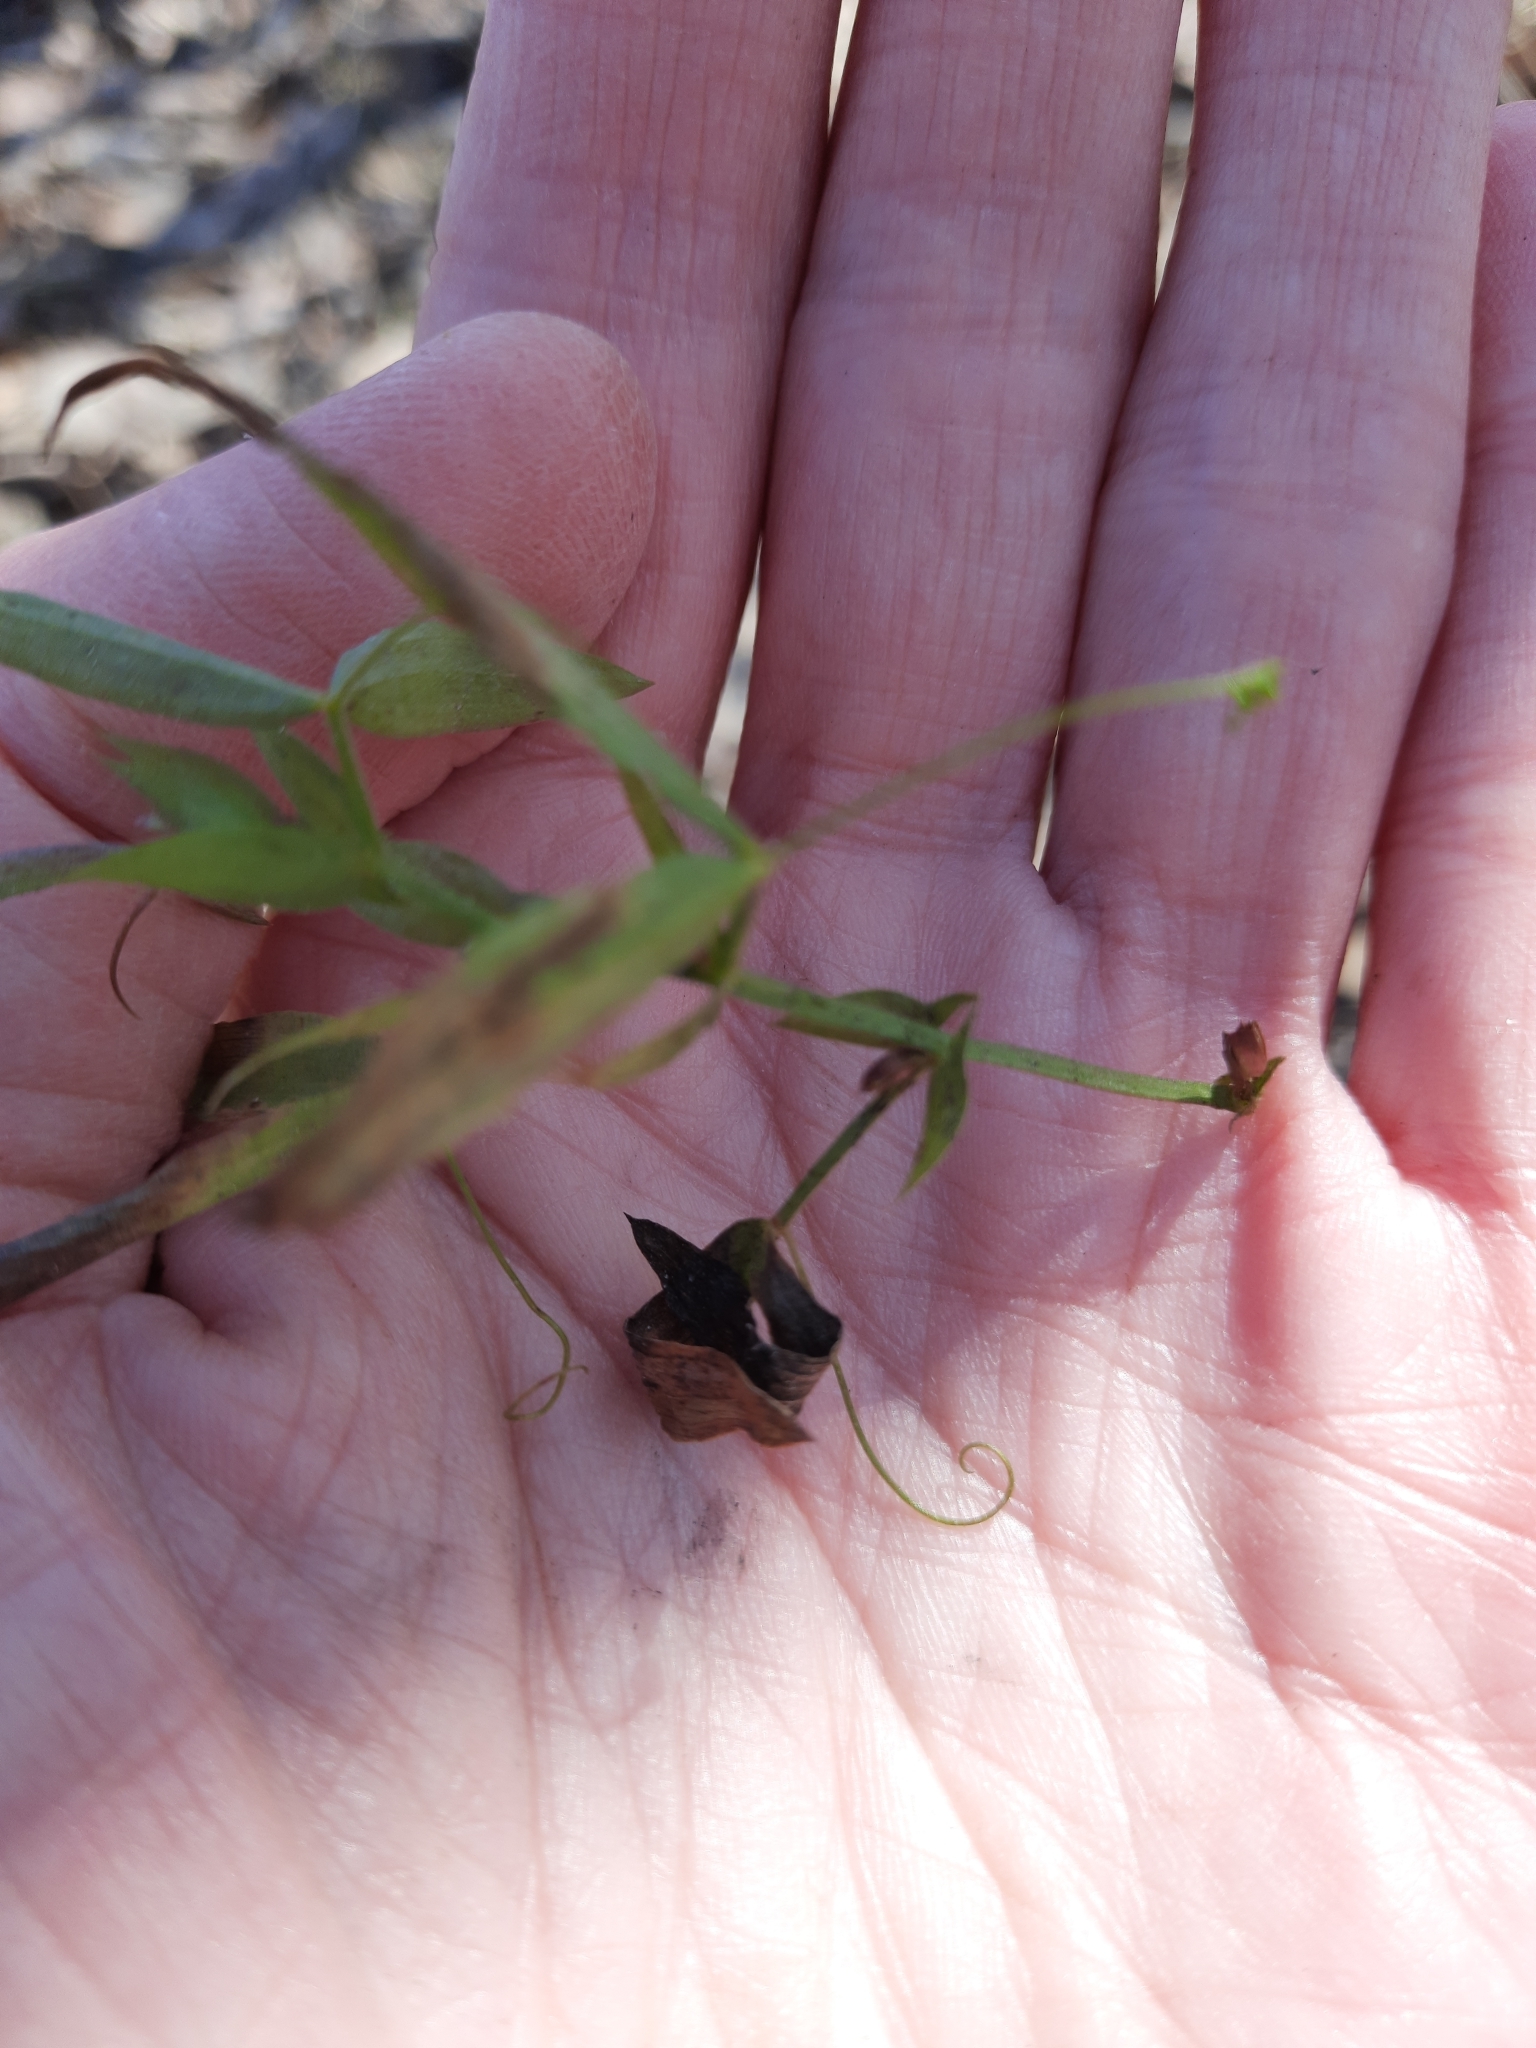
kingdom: Plantae
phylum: Tracheophyta
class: Magnoliopsida
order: Fabales
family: Fabaceae
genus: Lathyrus
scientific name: Lathyrus pratensis
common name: Meadow vetchling
